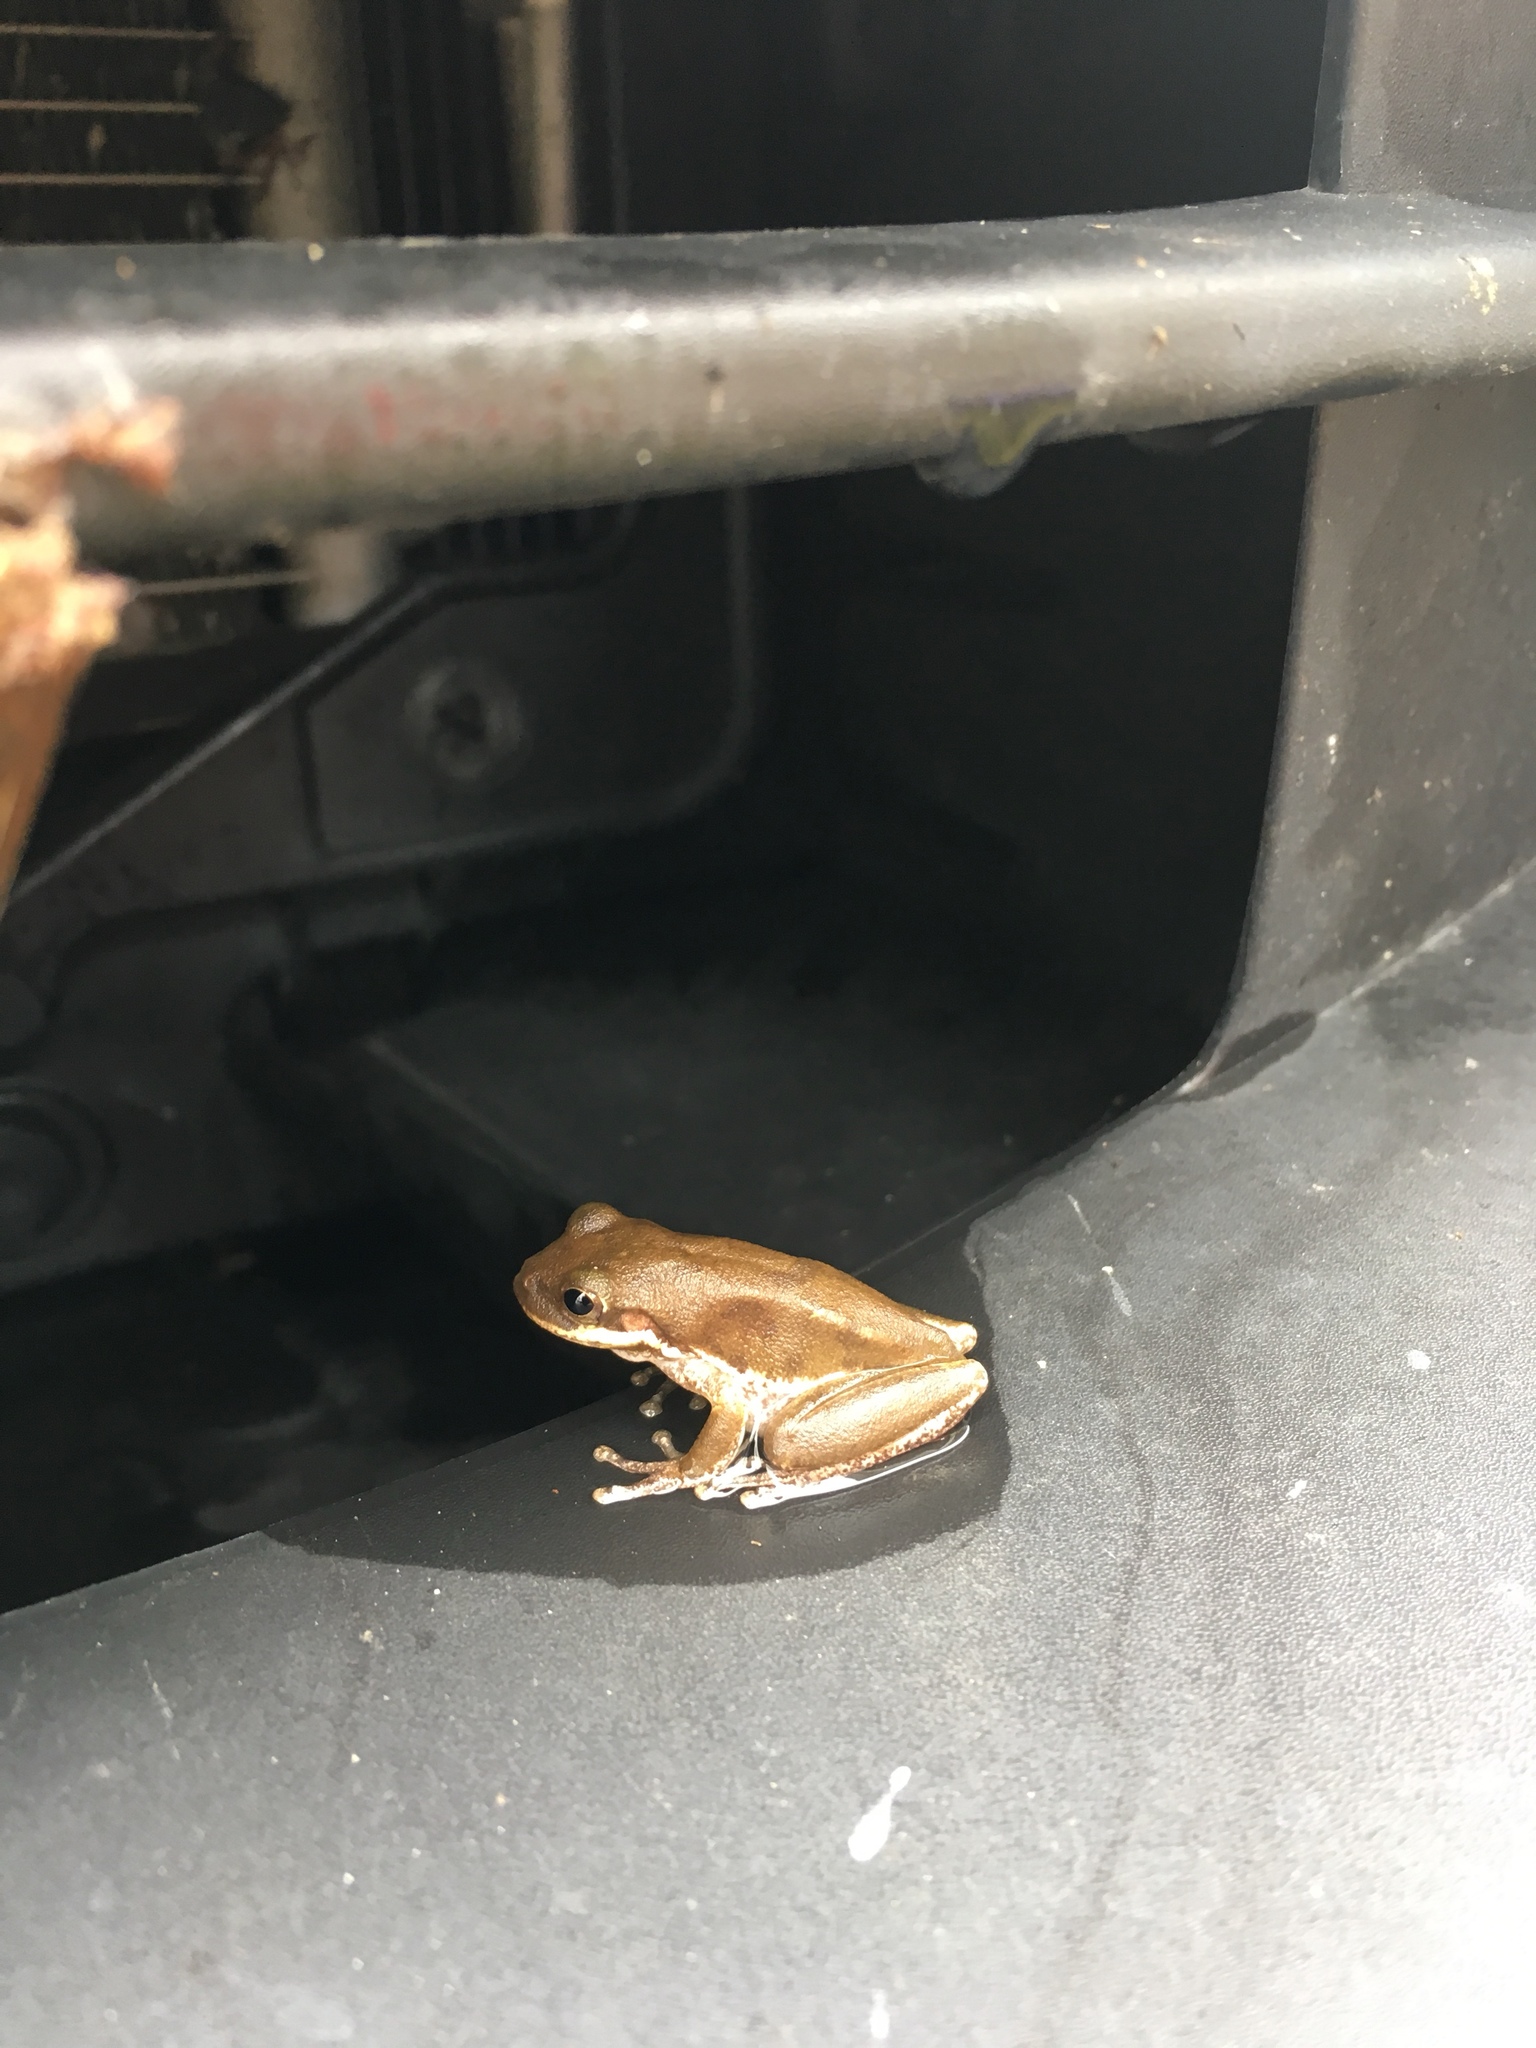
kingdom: Animalia
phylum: Chordata
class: Amphibia
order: Anura
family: Hylidae
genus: Dryophytes
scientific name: Dryophytes squirellus
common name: Squirrel treefrog
